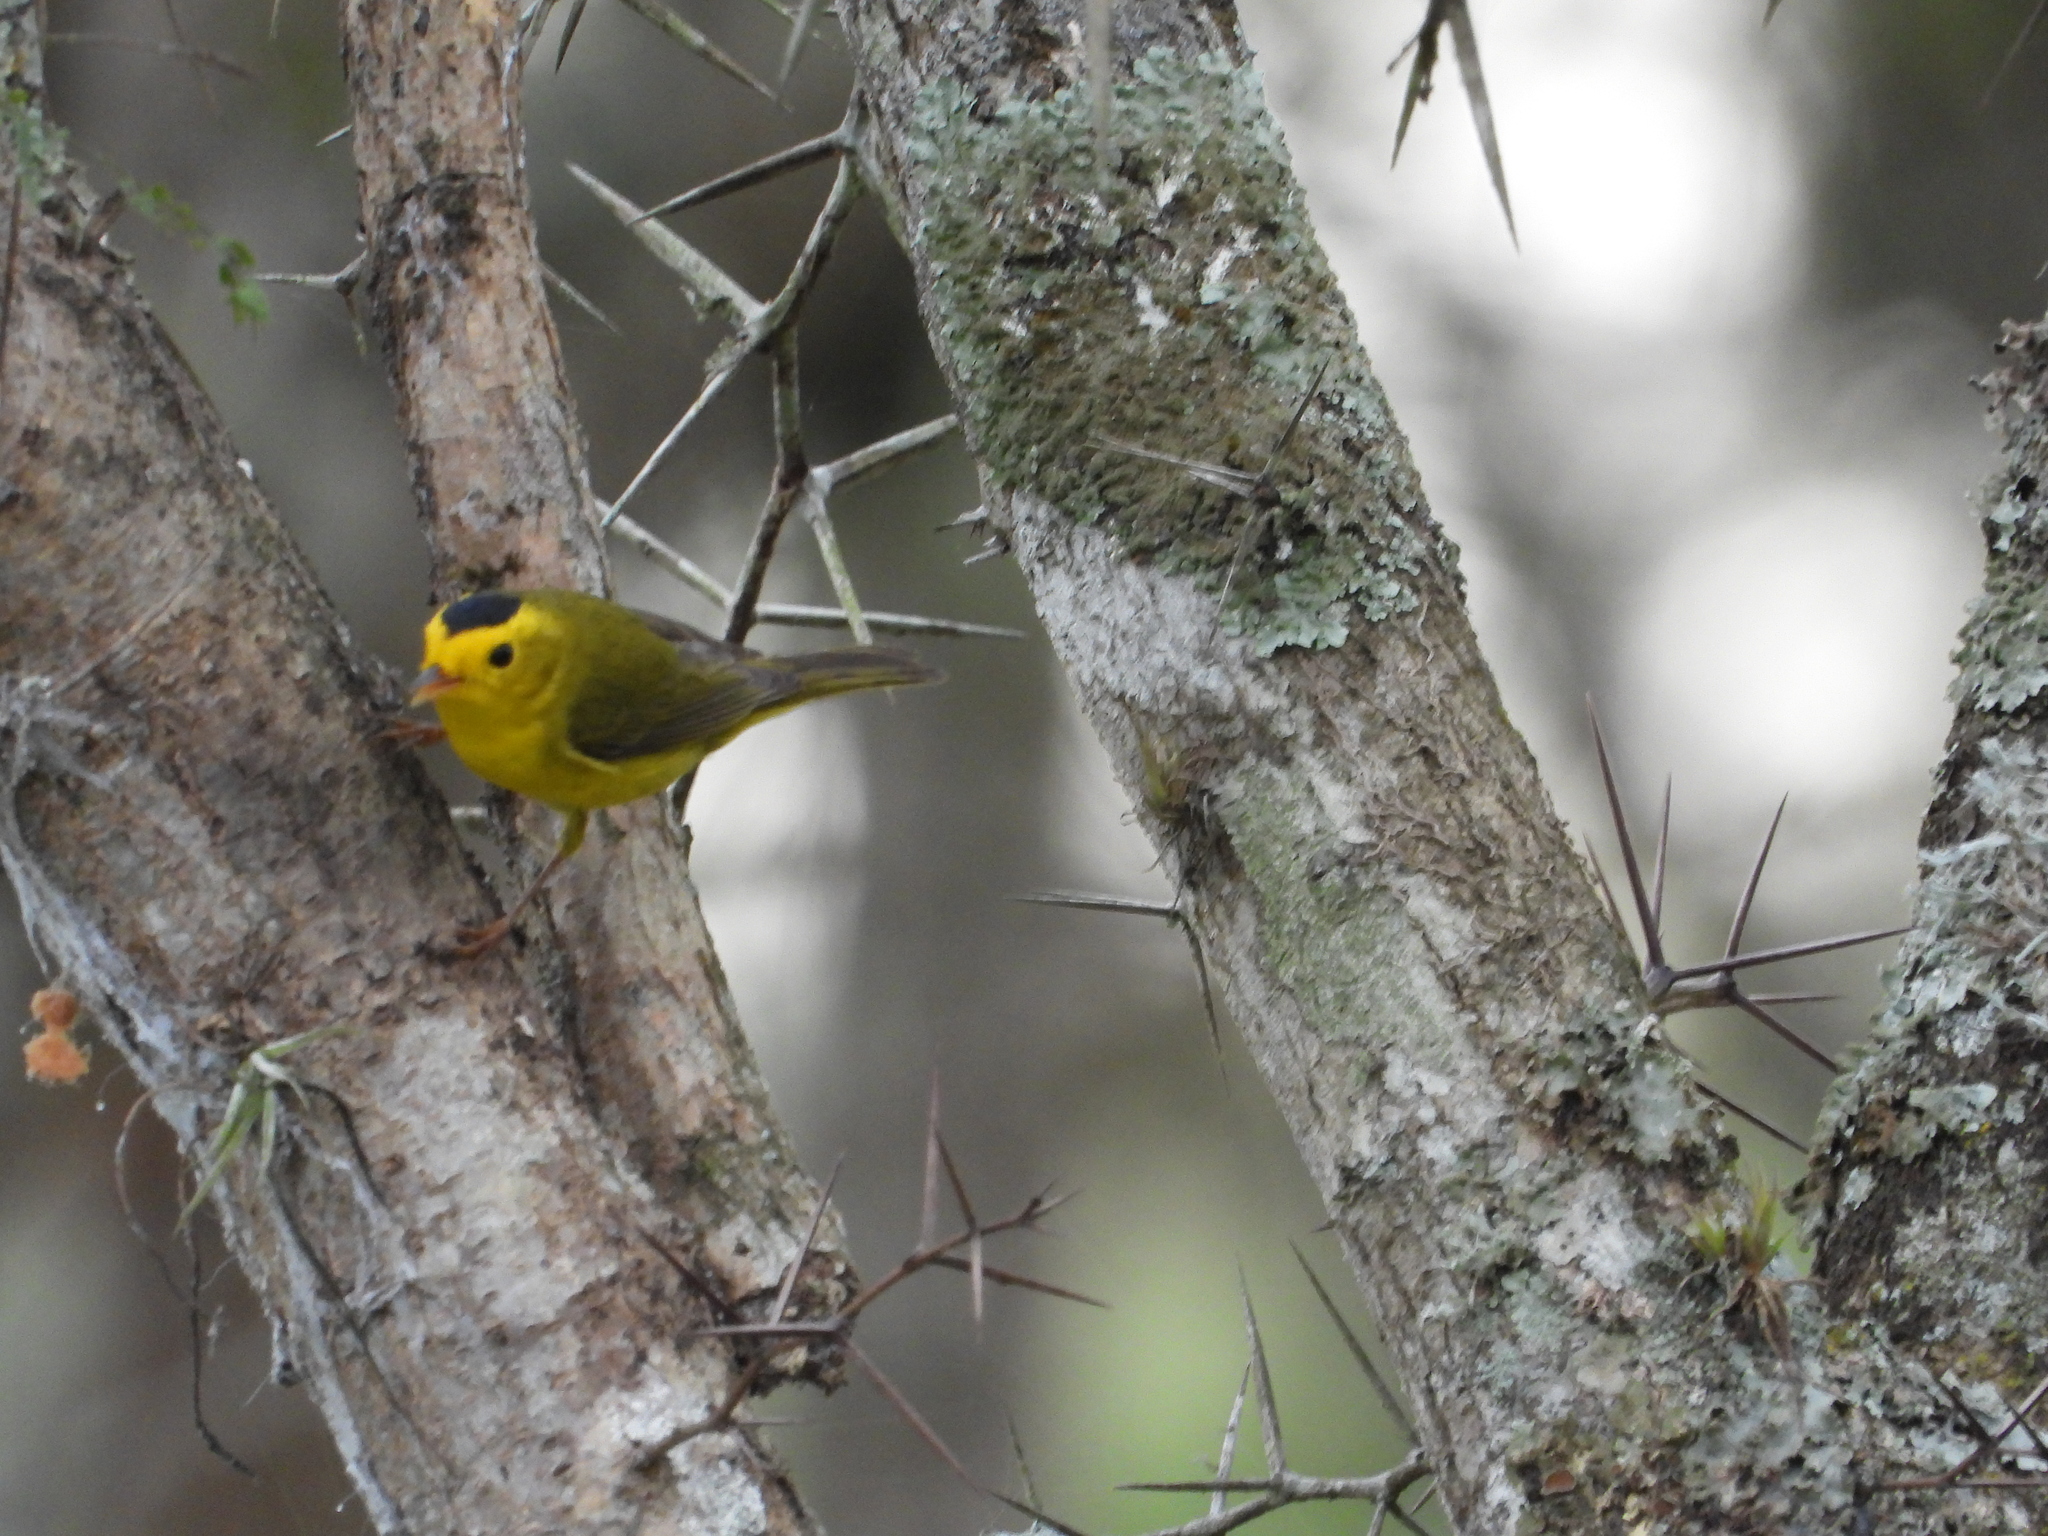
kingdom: Animalia
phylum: Chordata
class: Aves
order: Passeriformes
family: Parulidae
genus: Cardellina
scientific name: Cardellina pusilla
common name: Wilson's warbler
